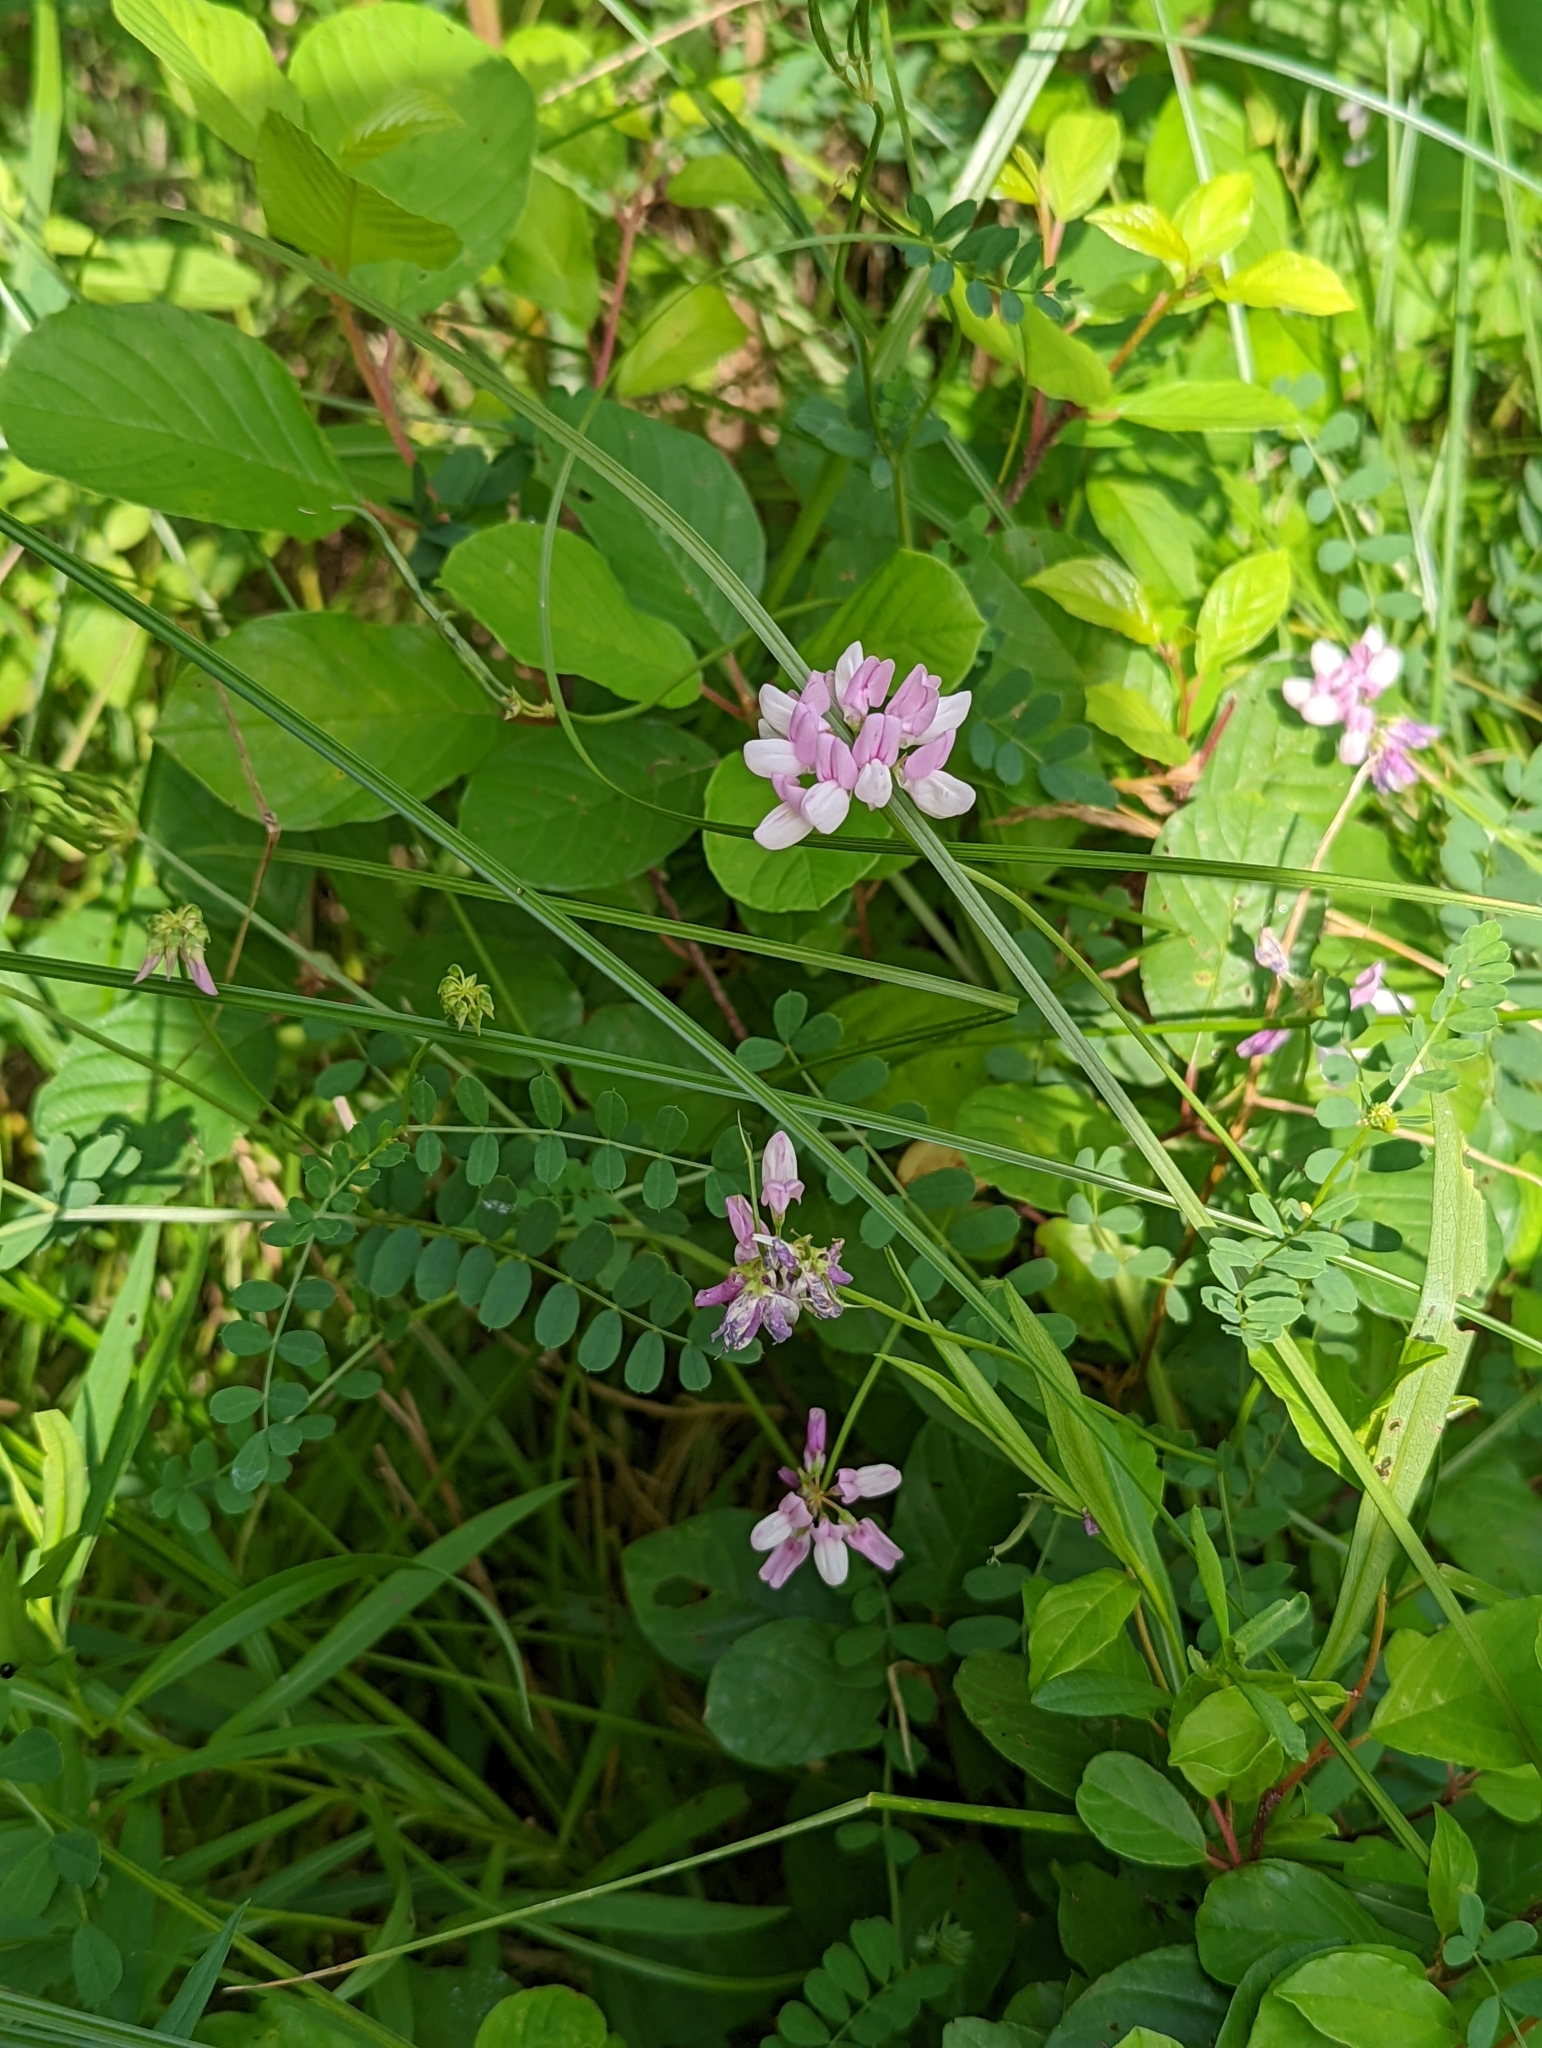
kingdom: Plantae
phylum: Tracheophyta
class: Magnoliopsida
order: Fabales
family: Fabaceae
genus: Coronilla
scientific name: Coronilla varia
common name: Crownvetch
